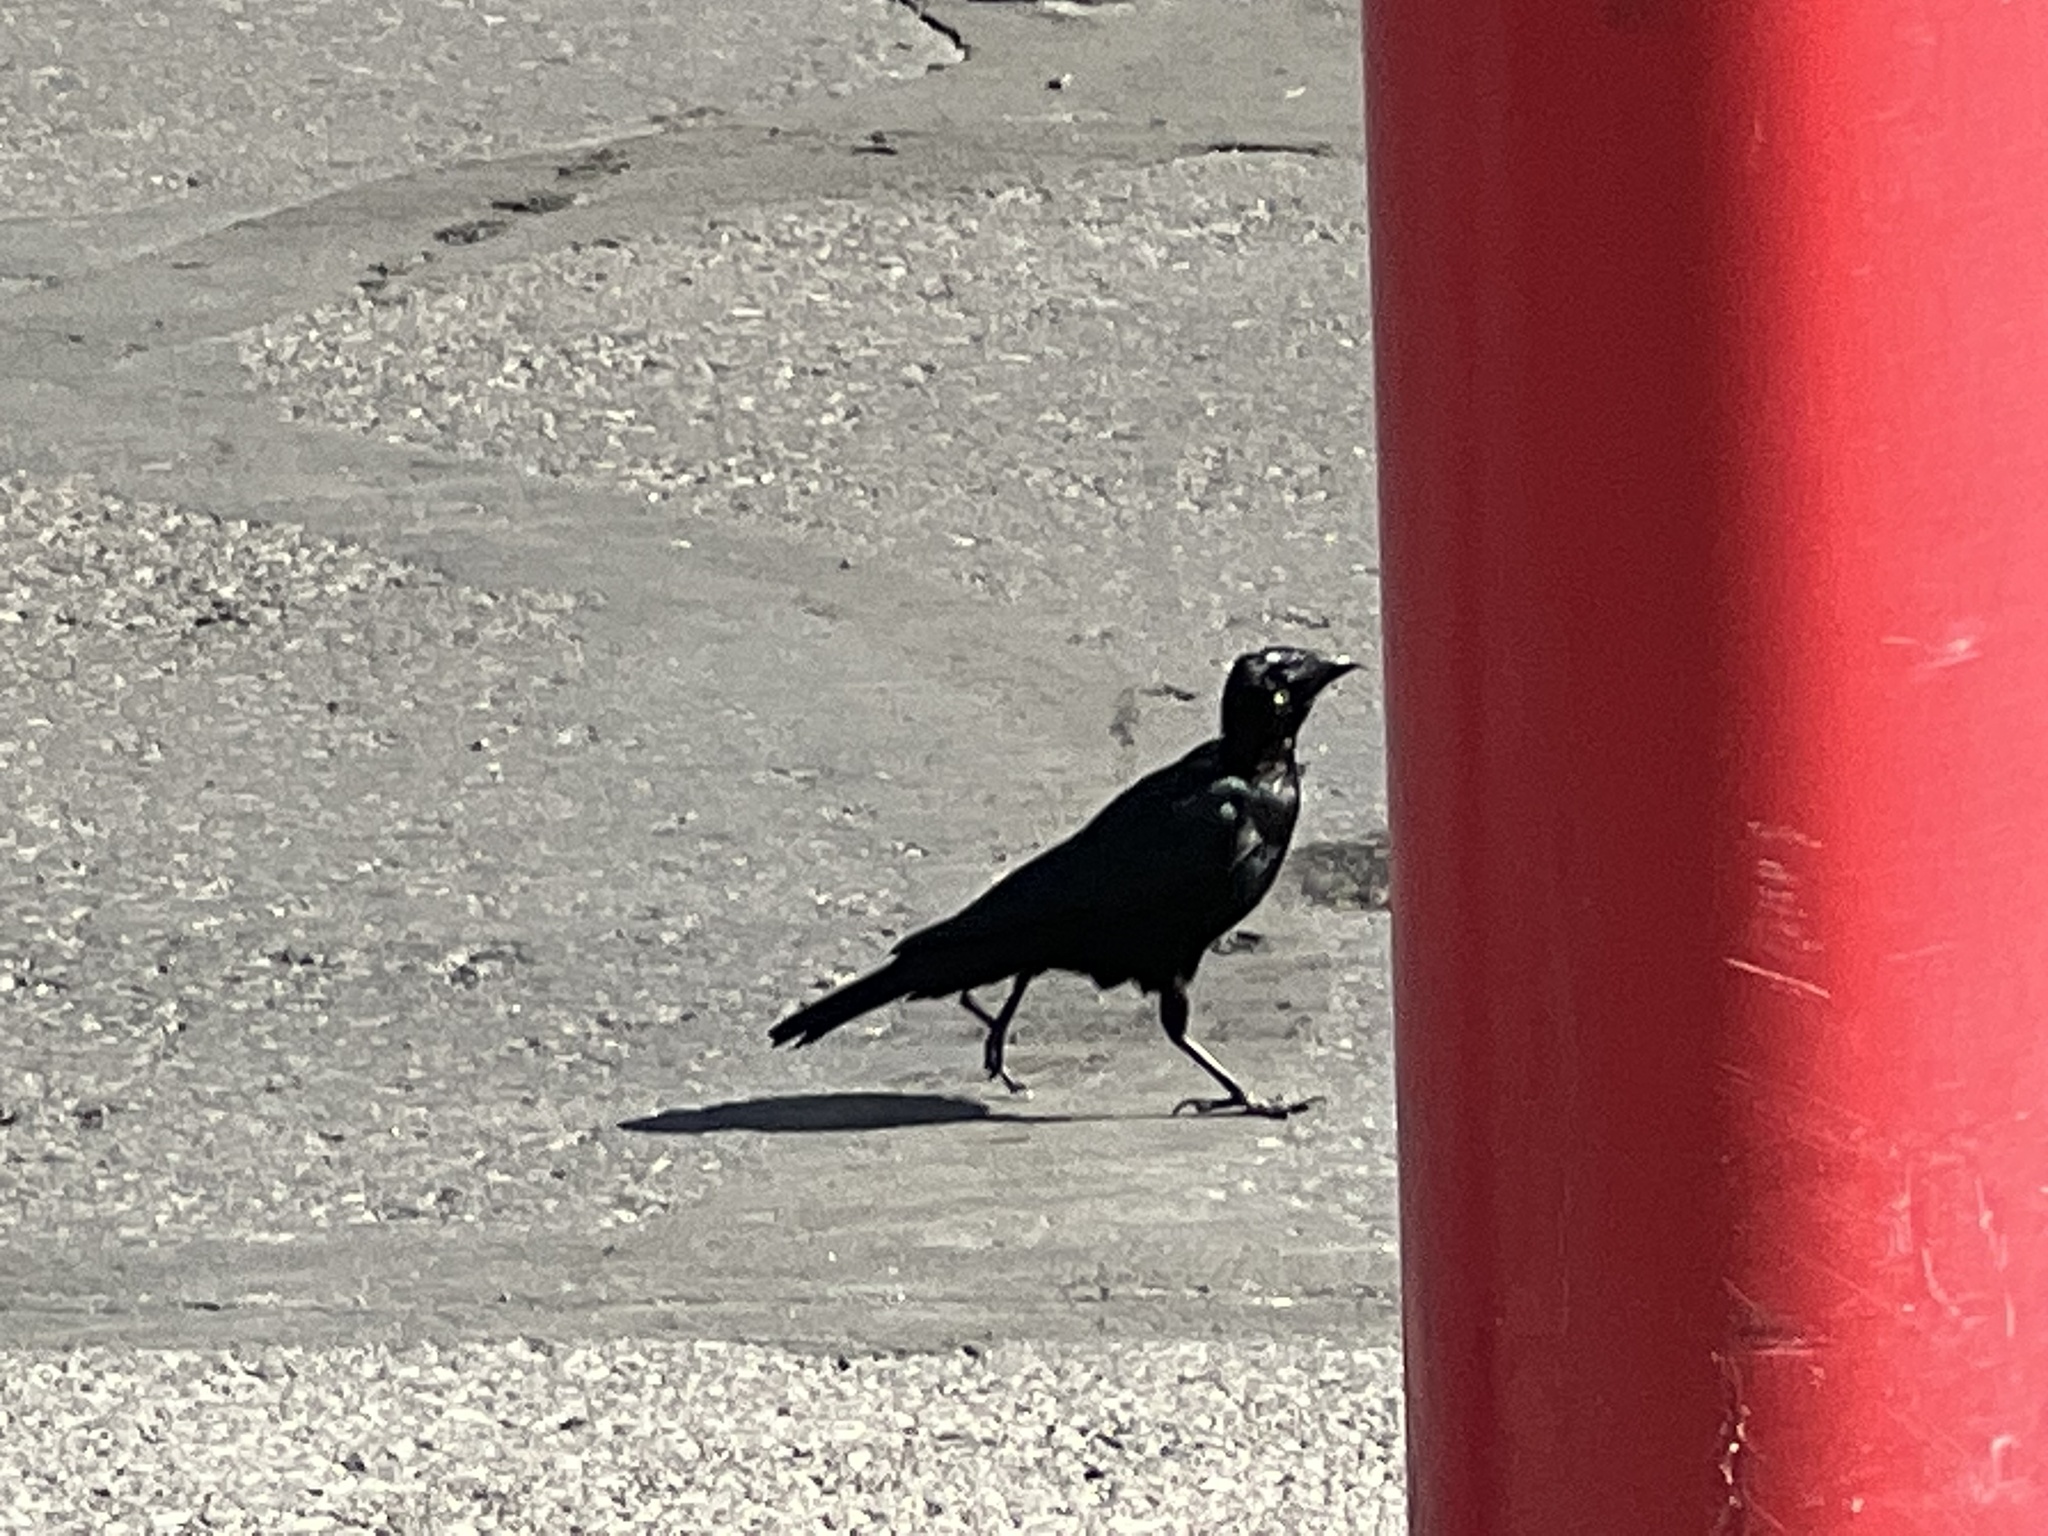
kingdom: Animalia
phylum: Chordata
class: Aves
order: Passeriformes
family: Icteridae
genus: Euphagus
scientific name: Euphagus cyanocephalus
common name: Brewer's blackbird
